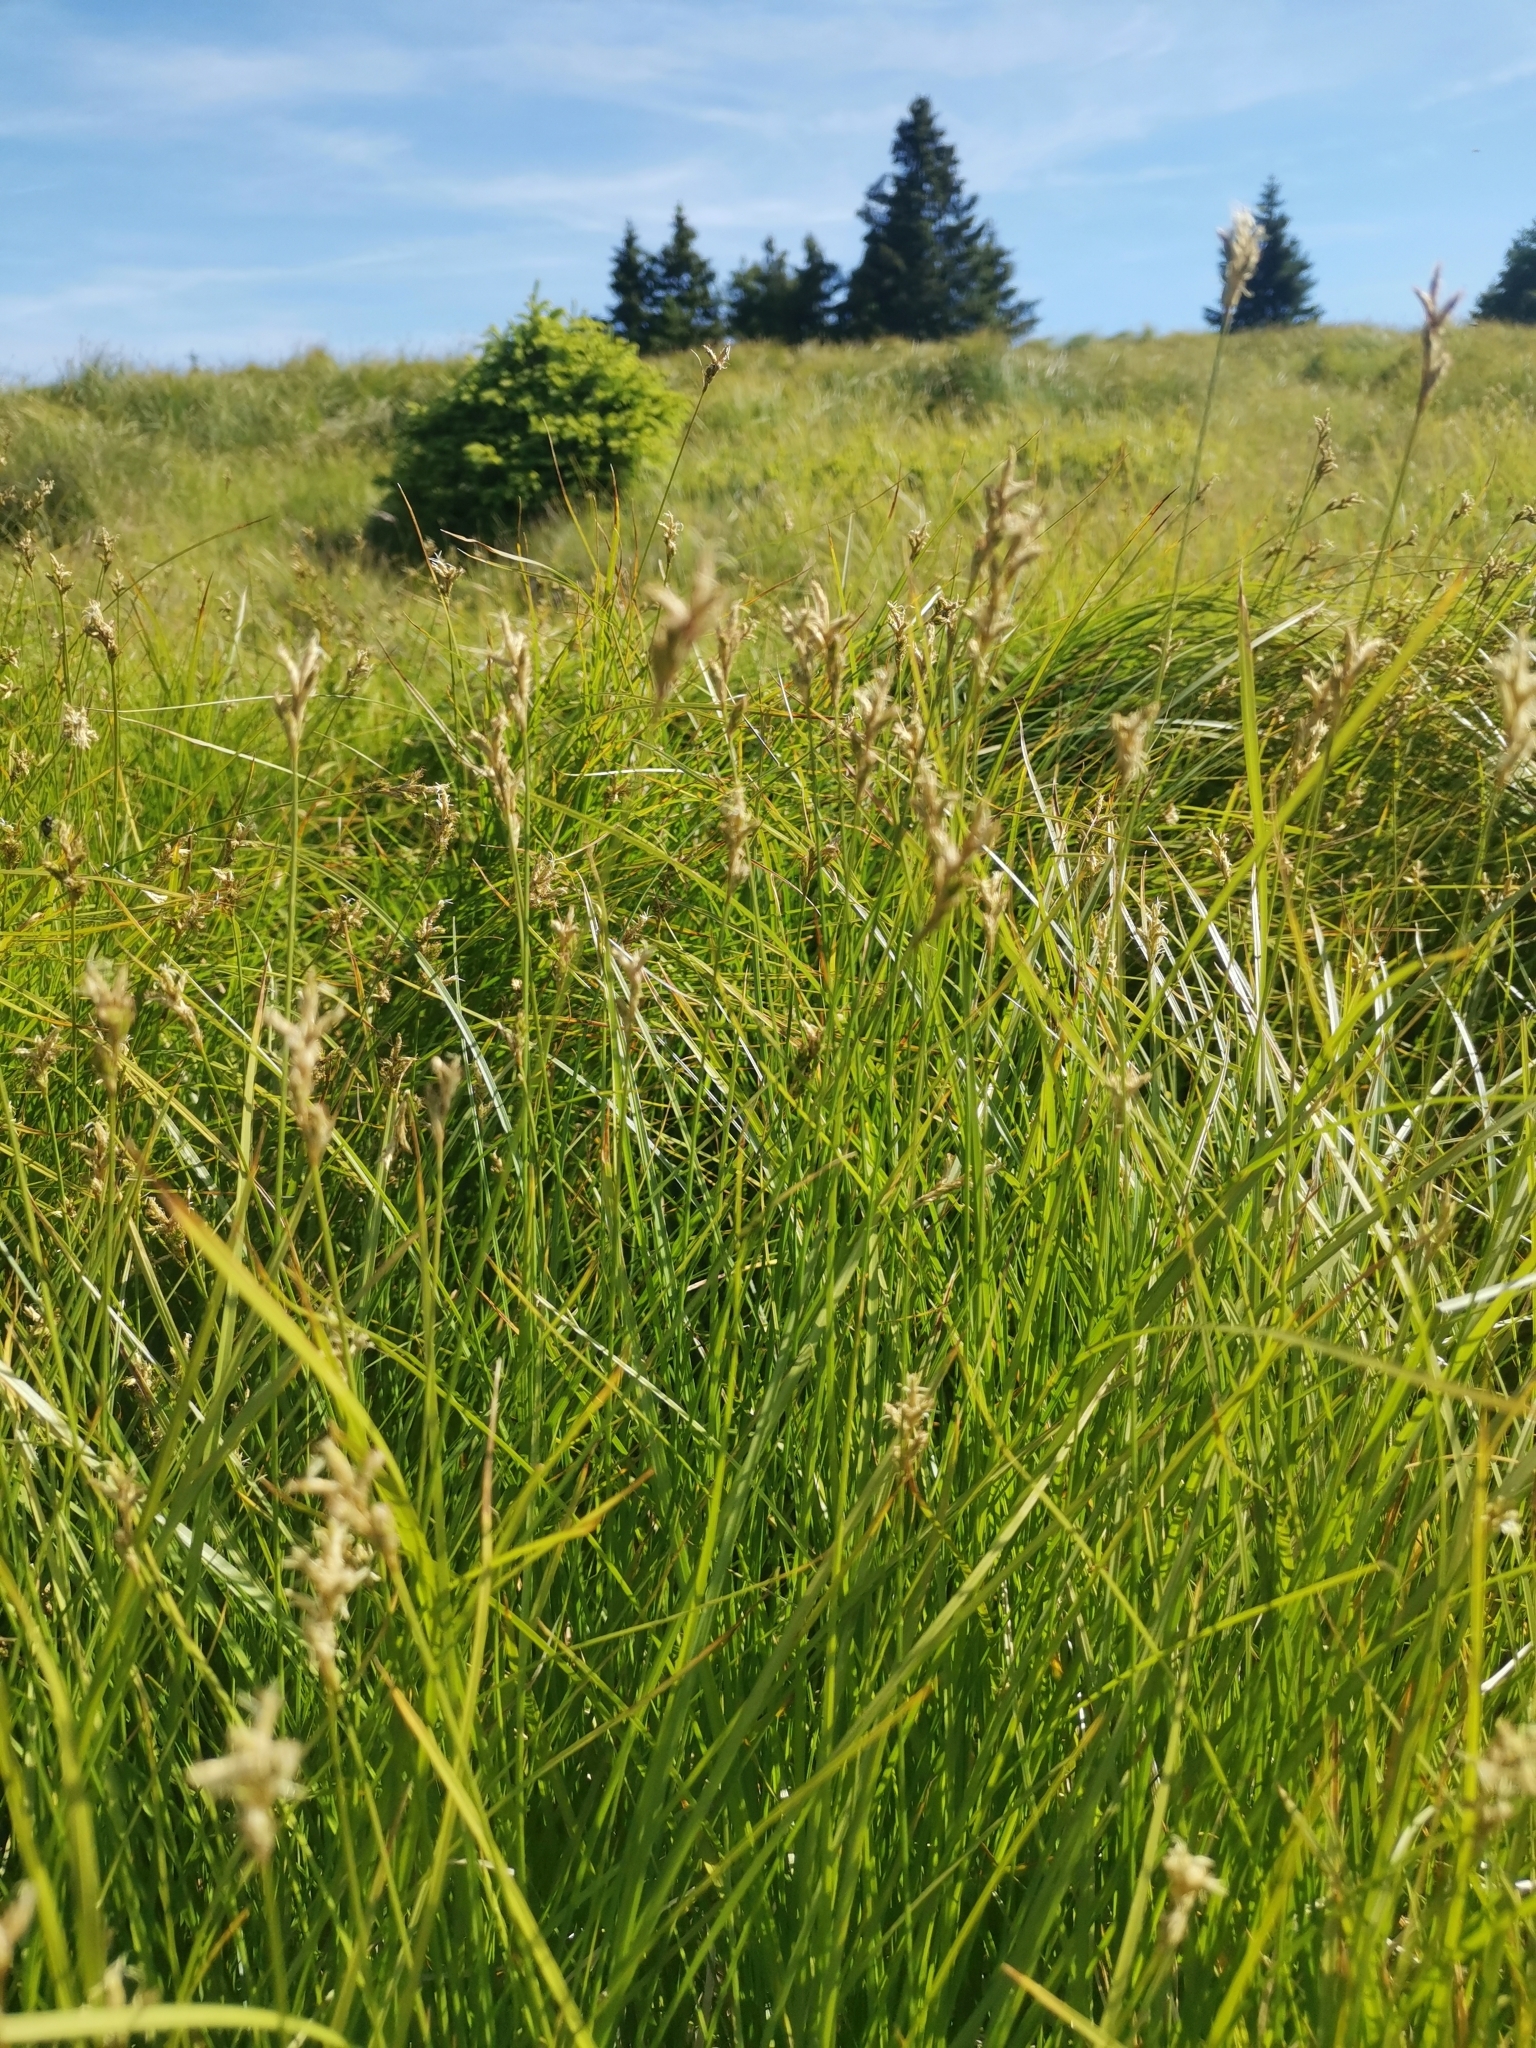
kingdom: Plantae
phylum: Tracheophyta
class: Liliopsida
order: Poales
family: Cyperaceae
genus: Carex
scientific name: Carex brizoides
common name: Quaking-grass sedge
